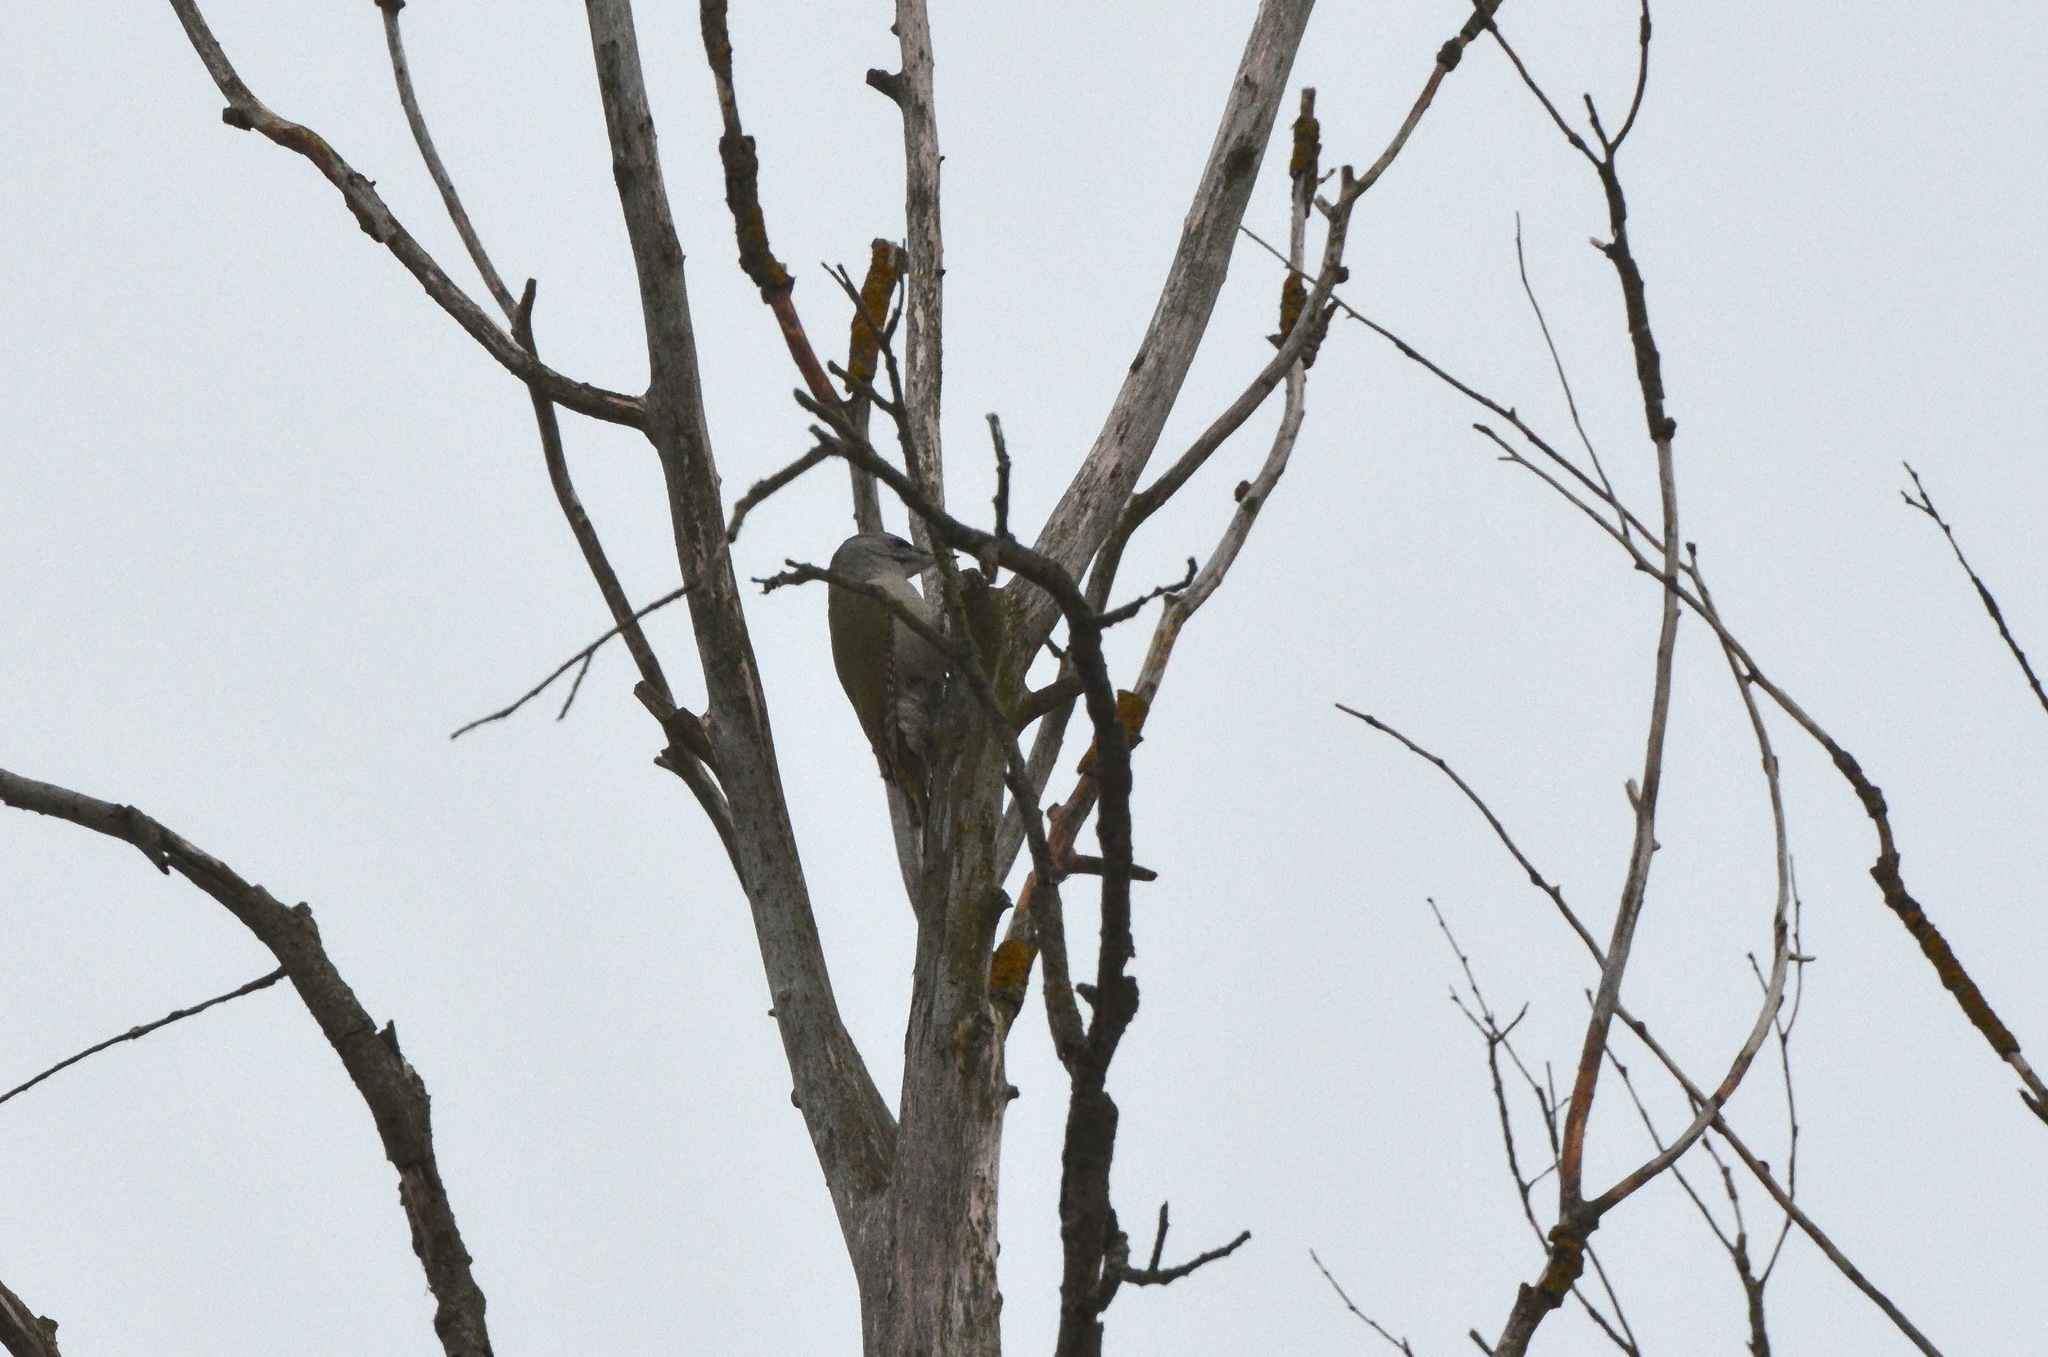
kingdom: Animalia
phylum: Chordata
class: Aves
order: Piciformes
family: Picidae
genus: Picus
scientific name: Picus canus
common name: Grey-headed woodpecker
